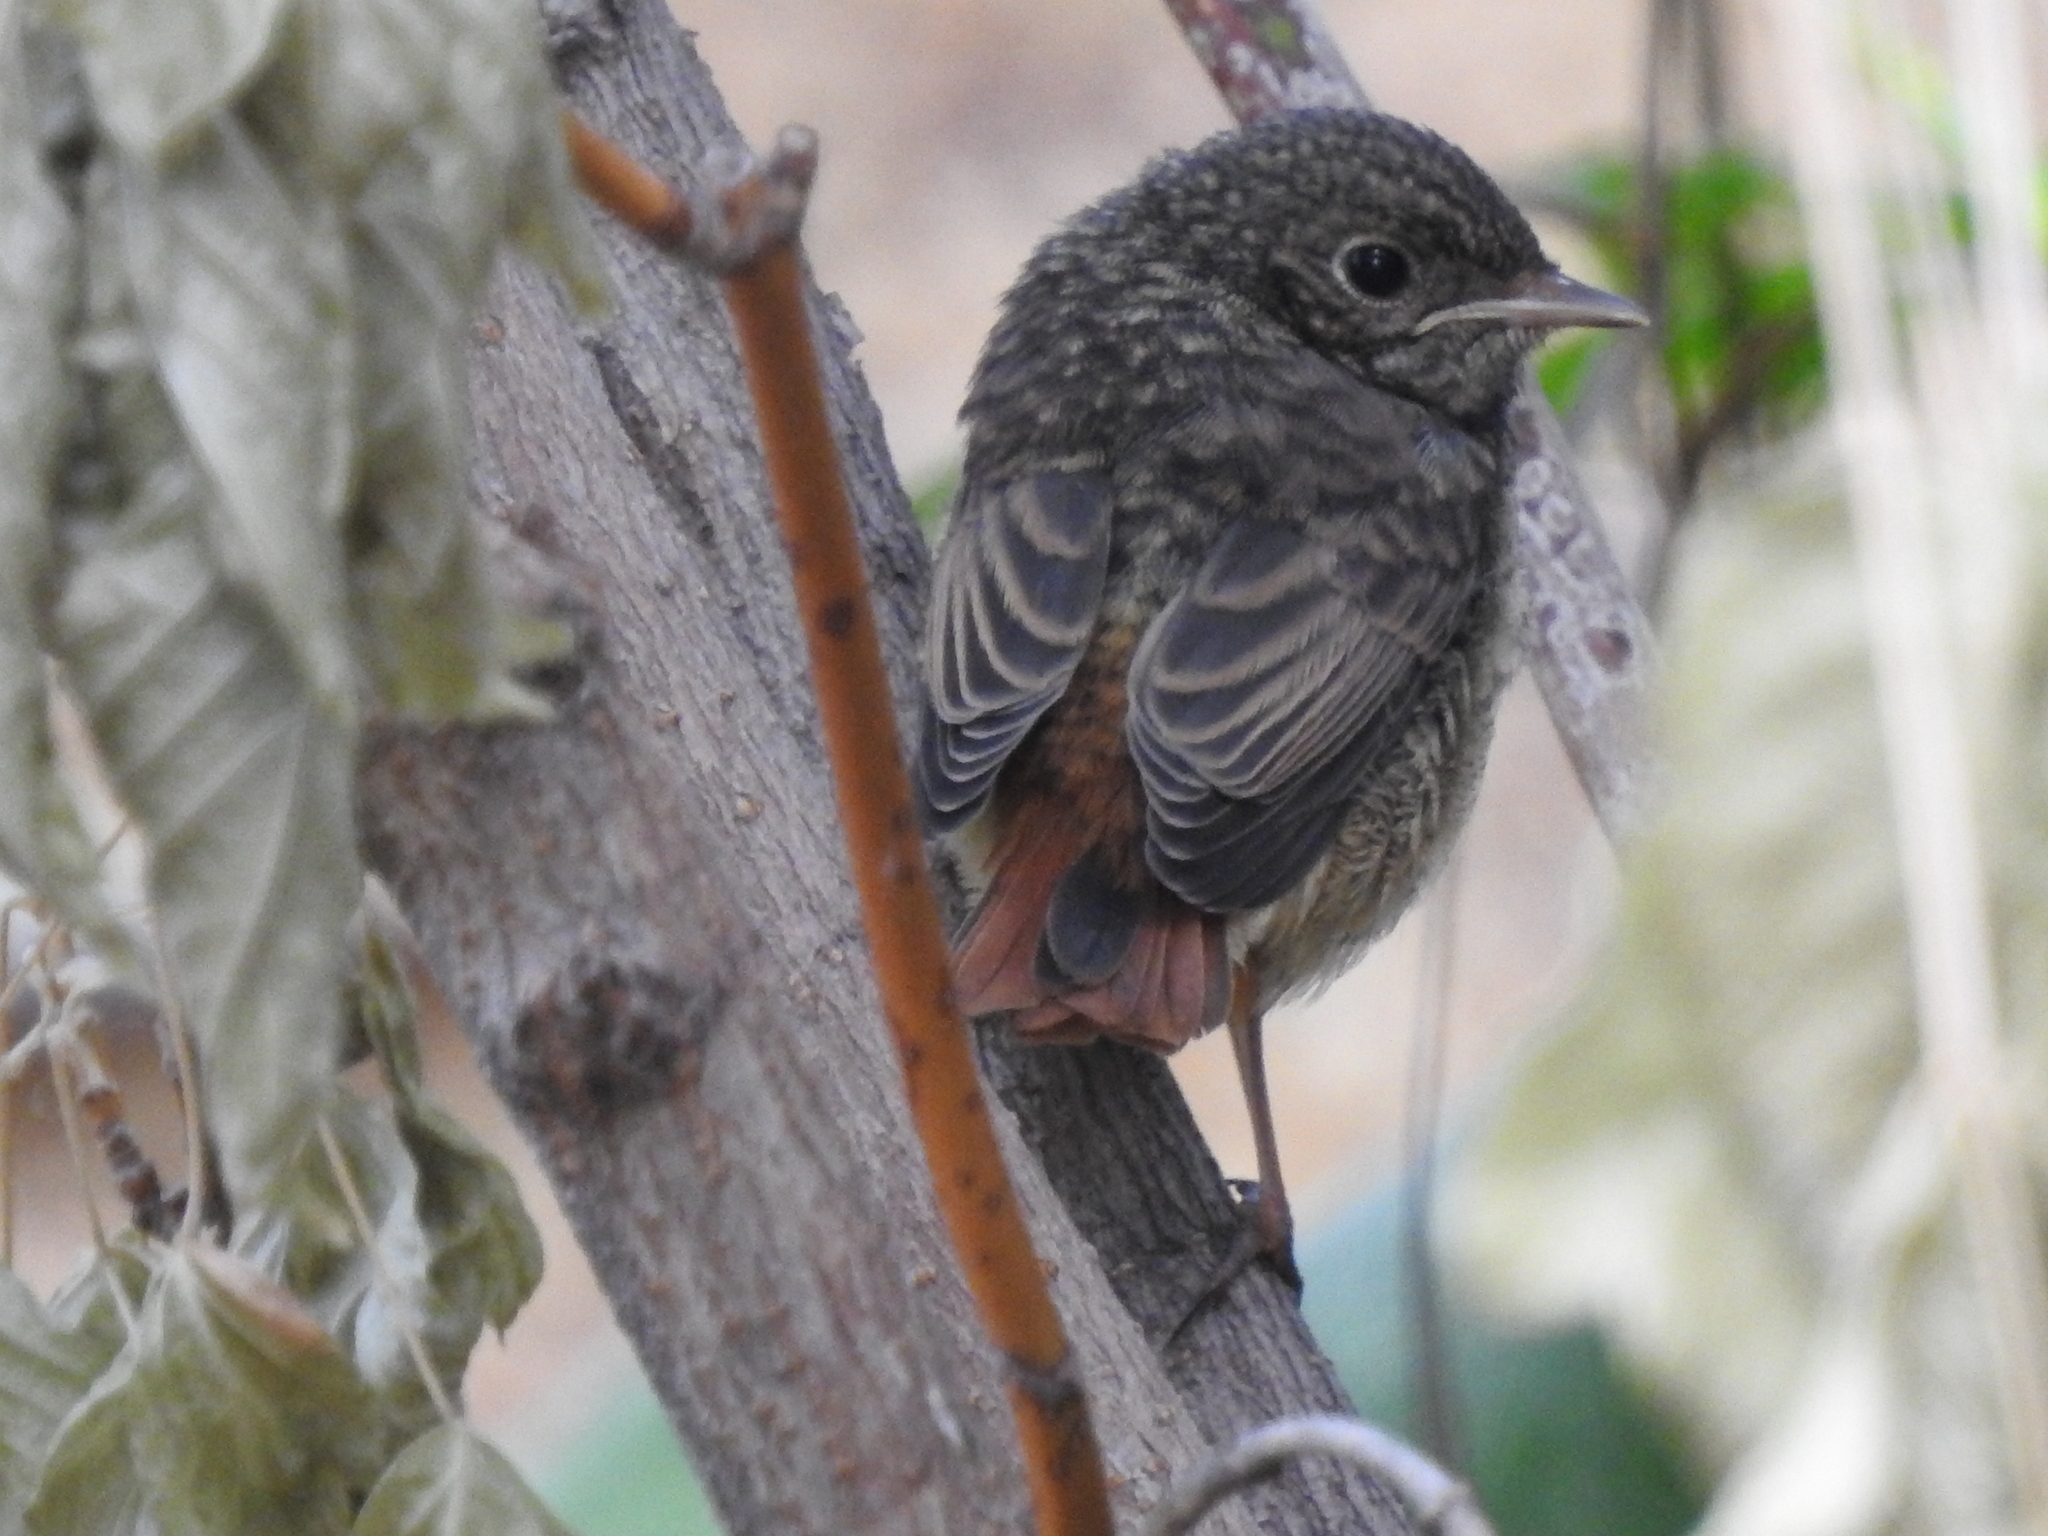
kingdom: Animalia
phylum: Chordata
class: Aves
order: Passeriformes
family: Muscicapidae
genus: Phoenicurus
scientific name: Phoenicurus phoenicurus
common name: Common redstart
